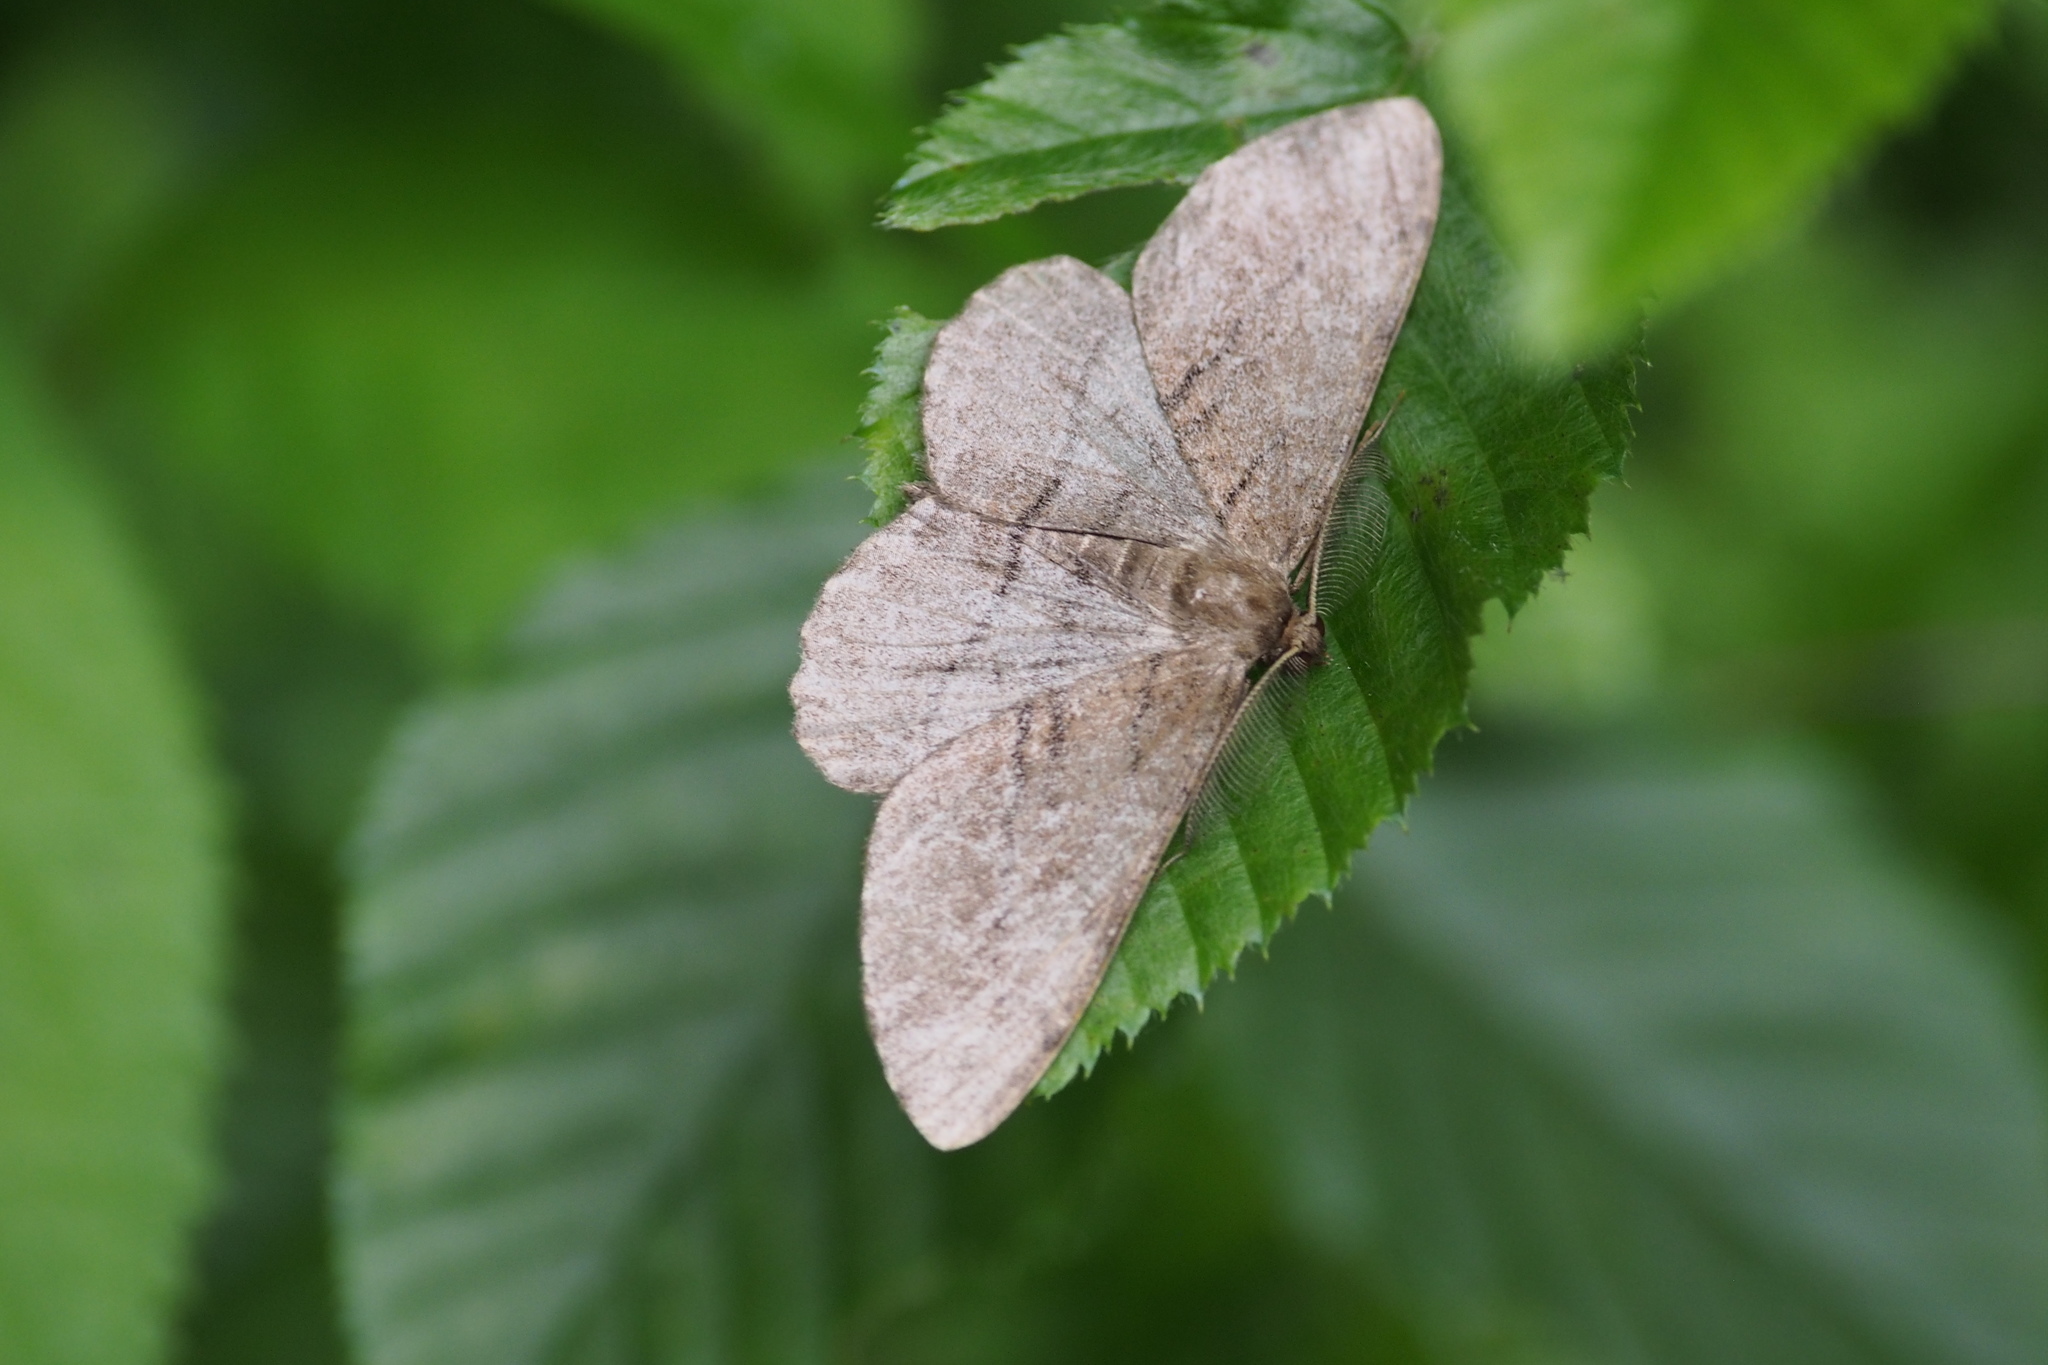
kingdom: Animalia
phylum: Arthropoda
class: Insecta
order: Lepidoptera
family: Geometridae
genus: Apocleora
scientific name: Apocleora rimosa
